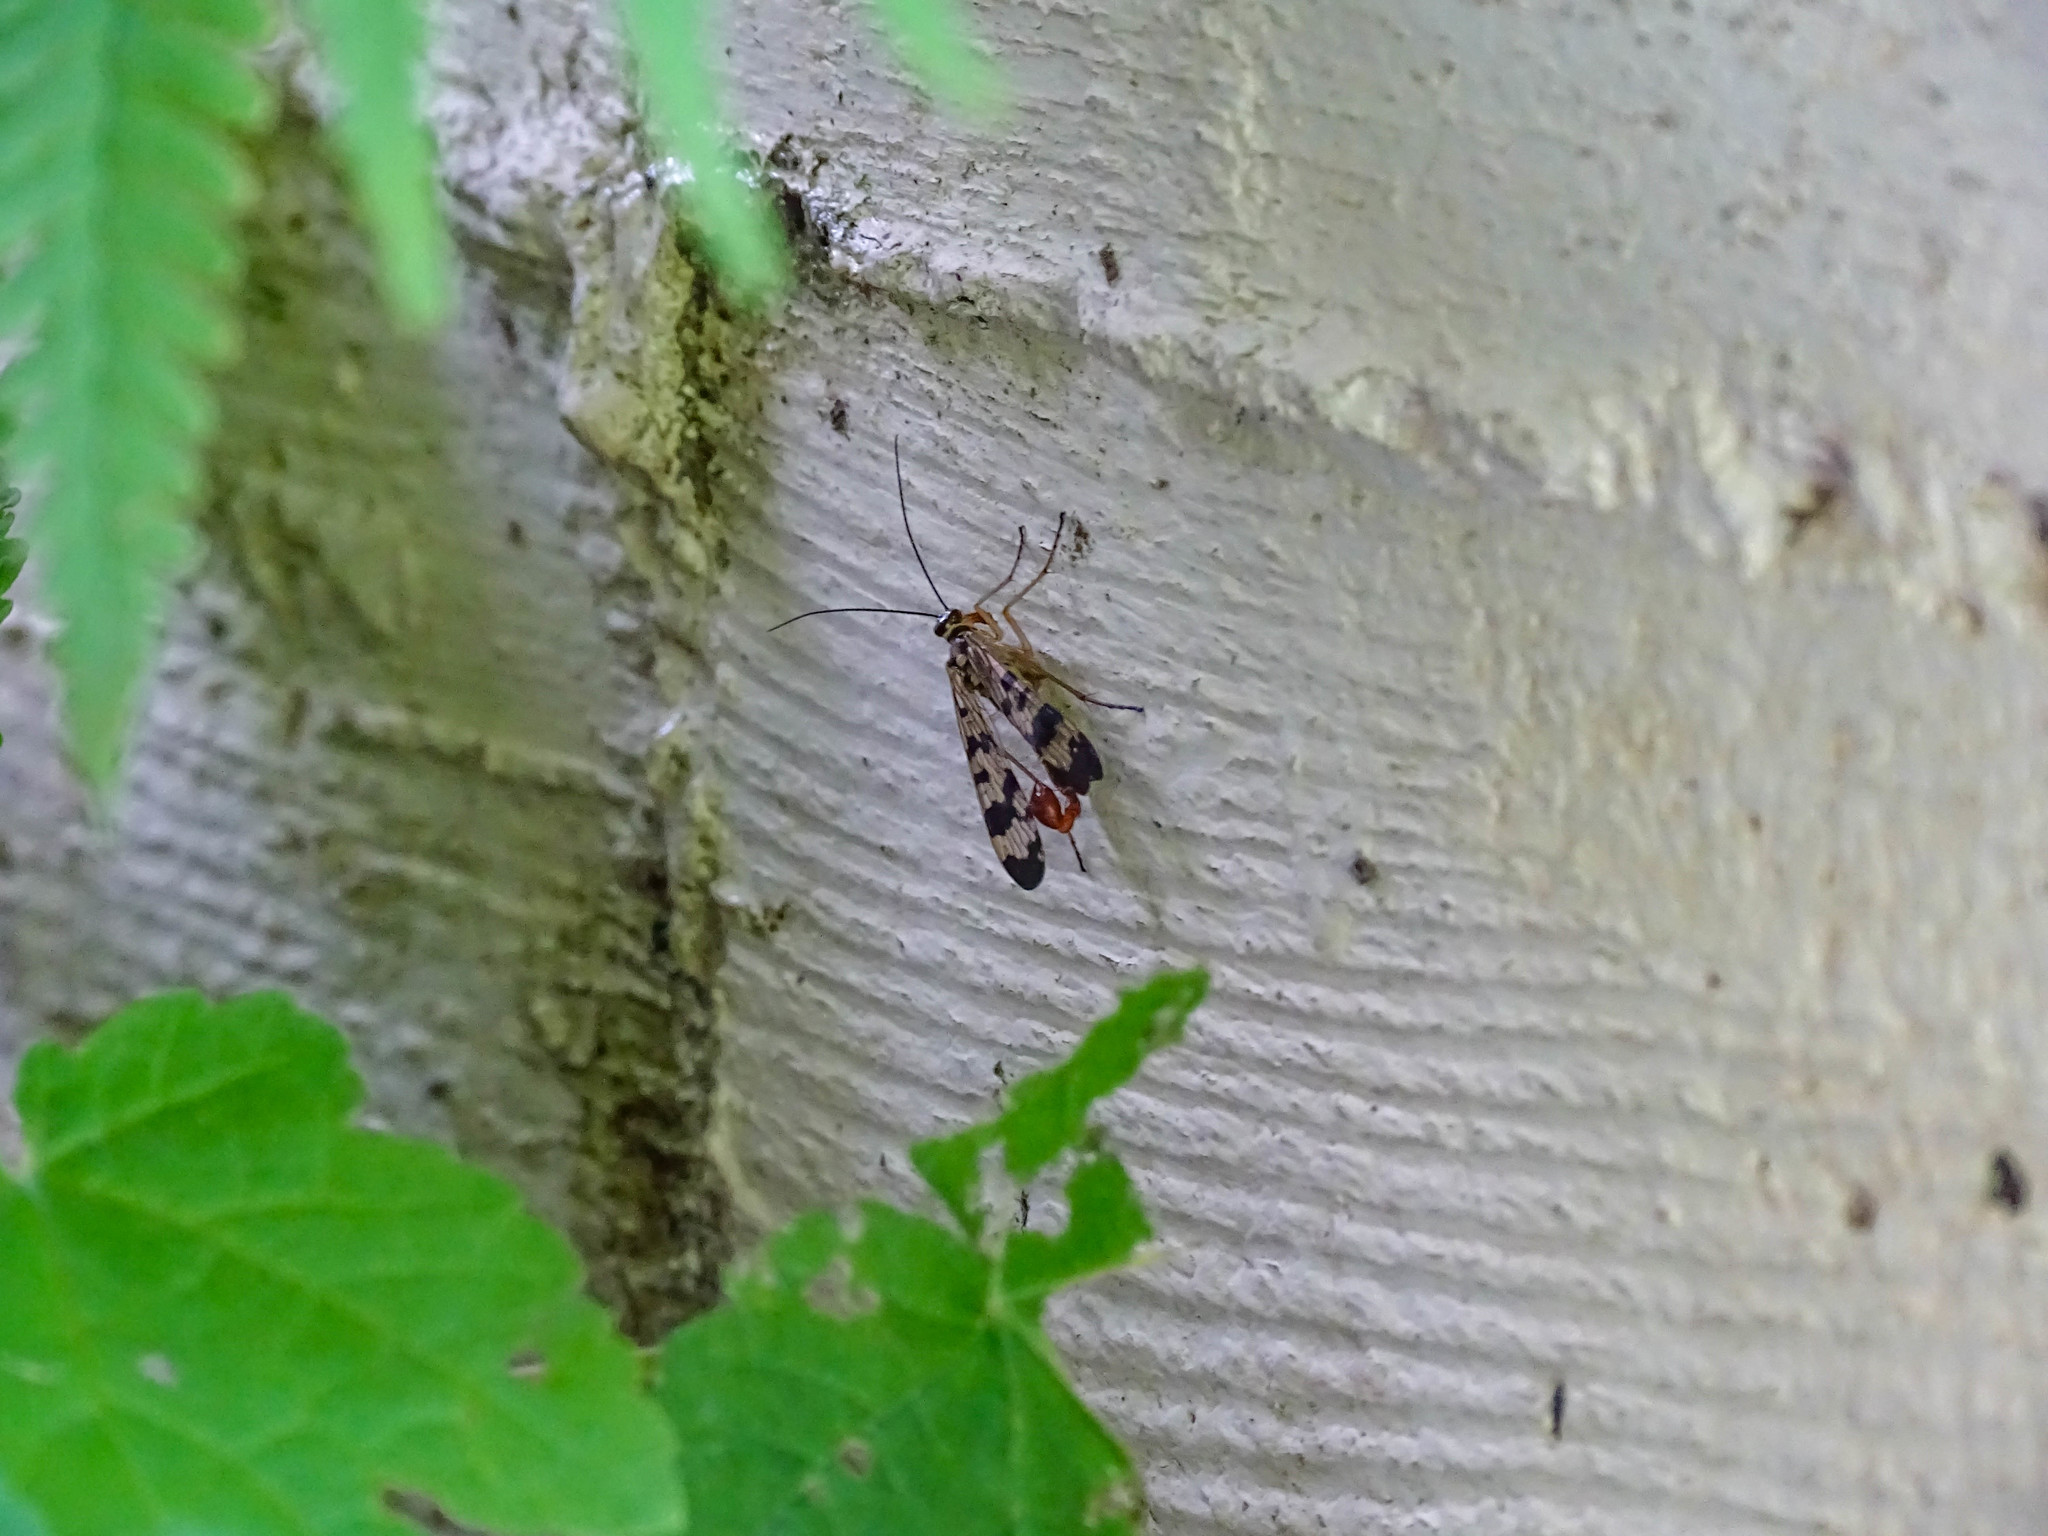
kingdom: Animalia
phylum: Arthropoda
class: Insecta
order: Mecoptera
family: Panorpidae
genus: Panorpa
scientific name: Panorpa communis
